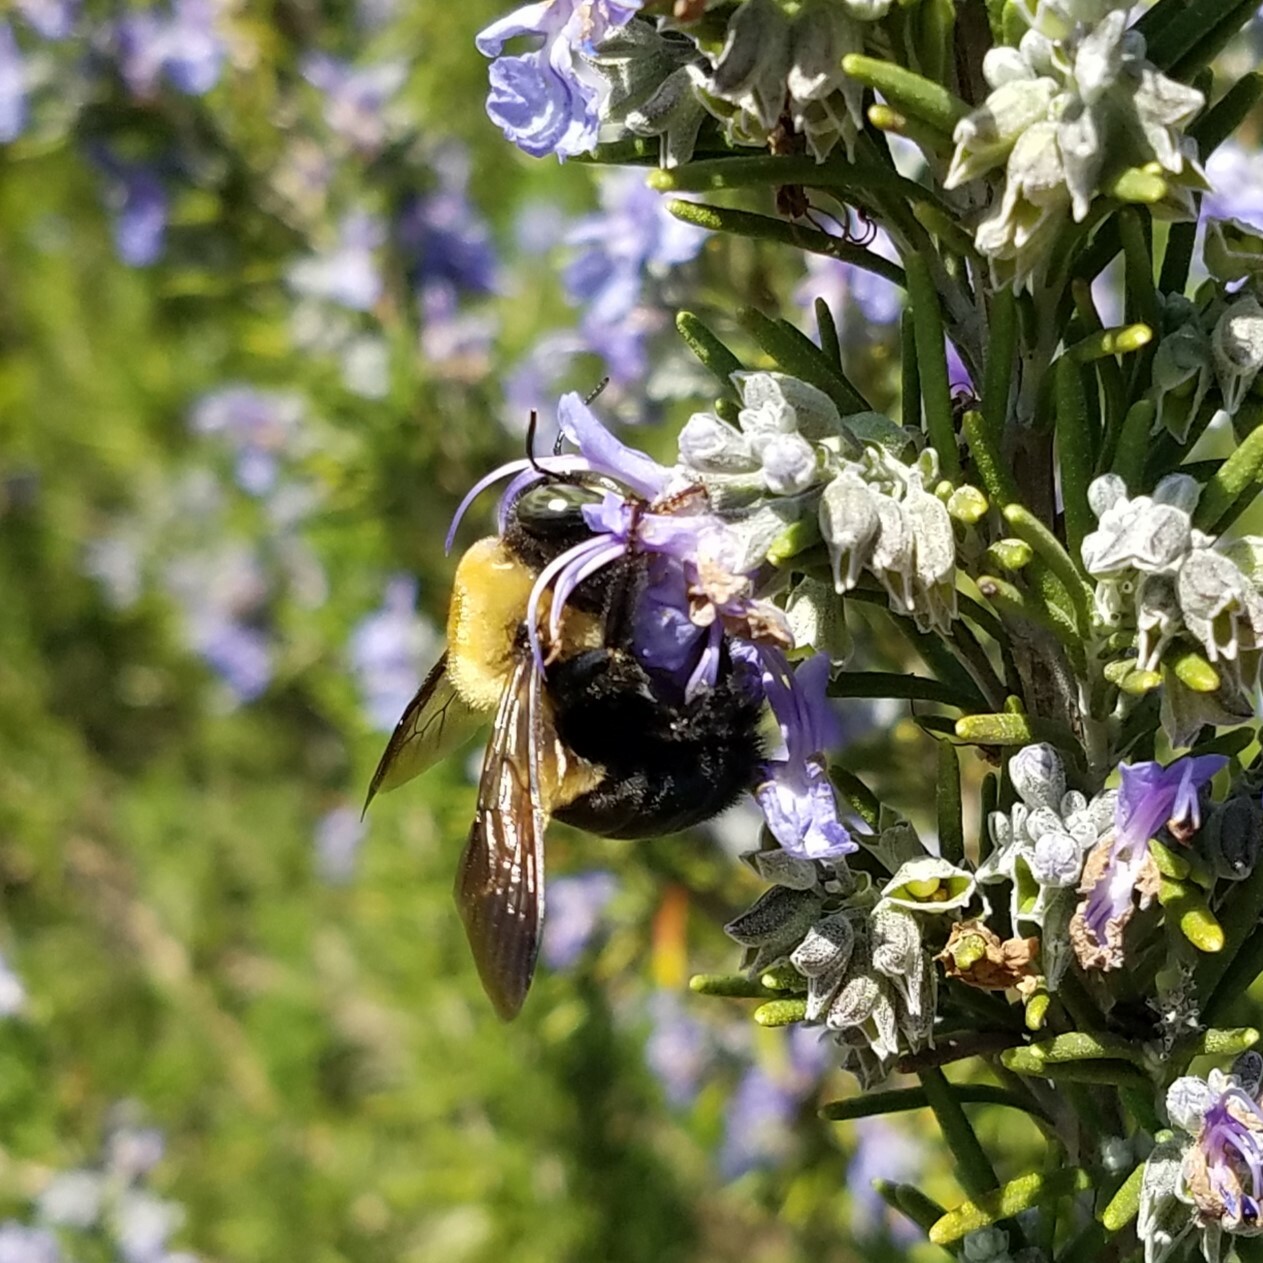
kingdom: Animalia
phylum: Arthropoda
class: Insecta
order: Hymenoptera
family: Apidae
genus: Xylocopa
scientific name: Xylocopa virginica
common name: Carpenter bee
